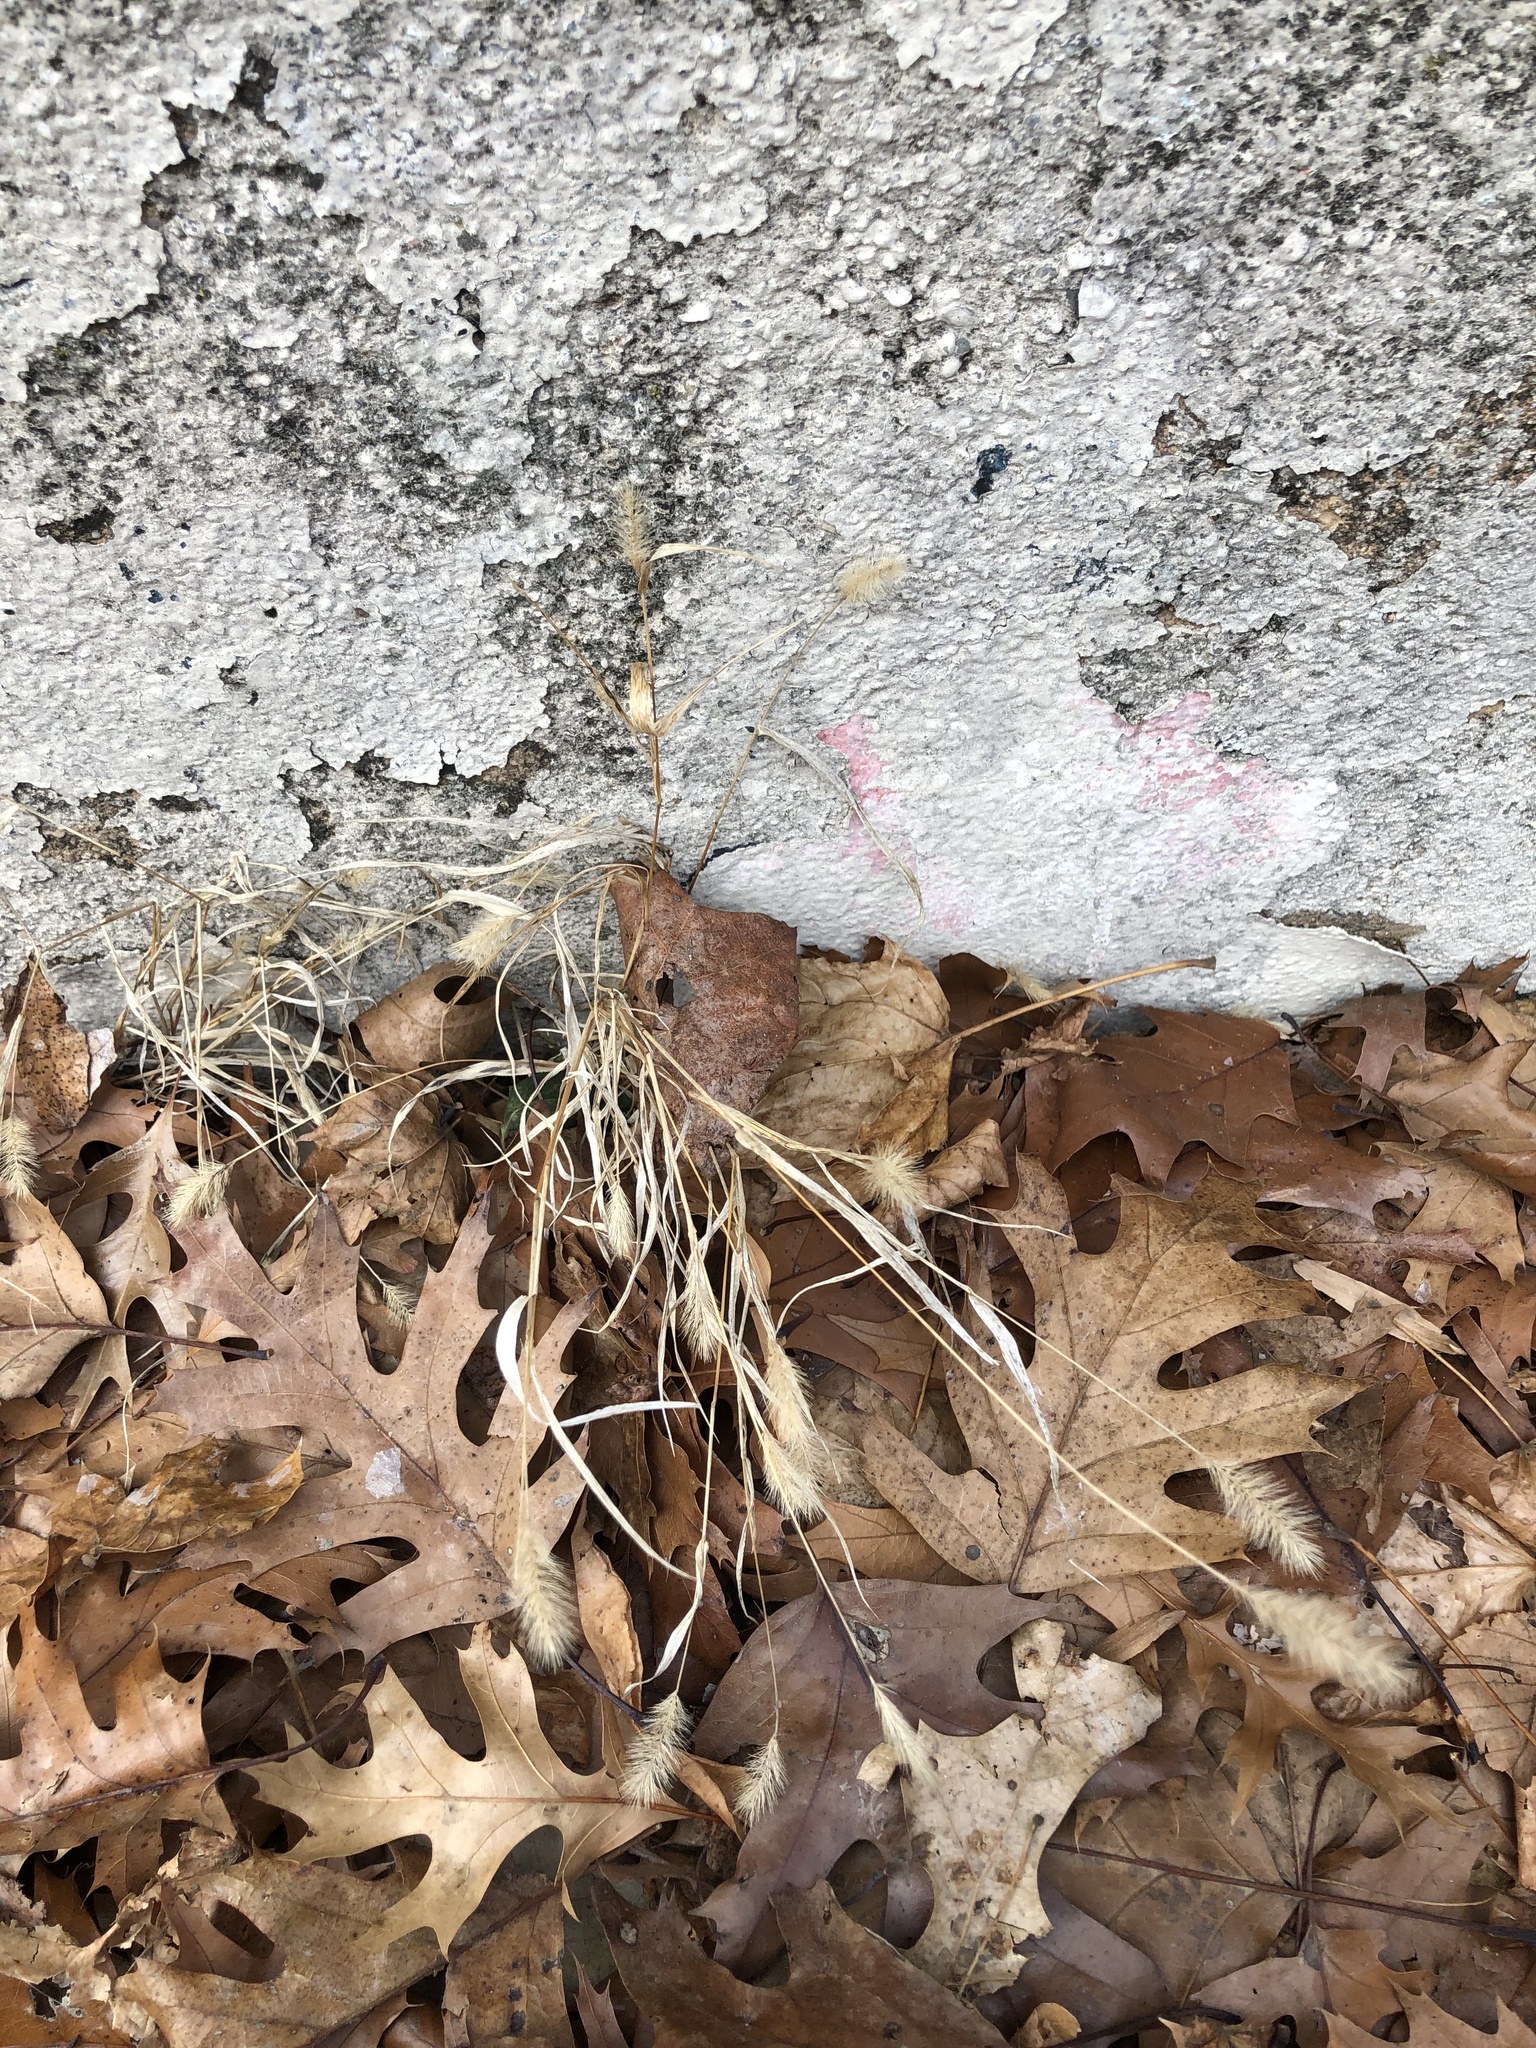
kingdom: Plantae
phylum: Tracheophyta
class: Liliopsida
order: Poales
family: Poaceae
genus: Setaria
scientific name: Setaria pumila
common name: Yellow bristle-grass
